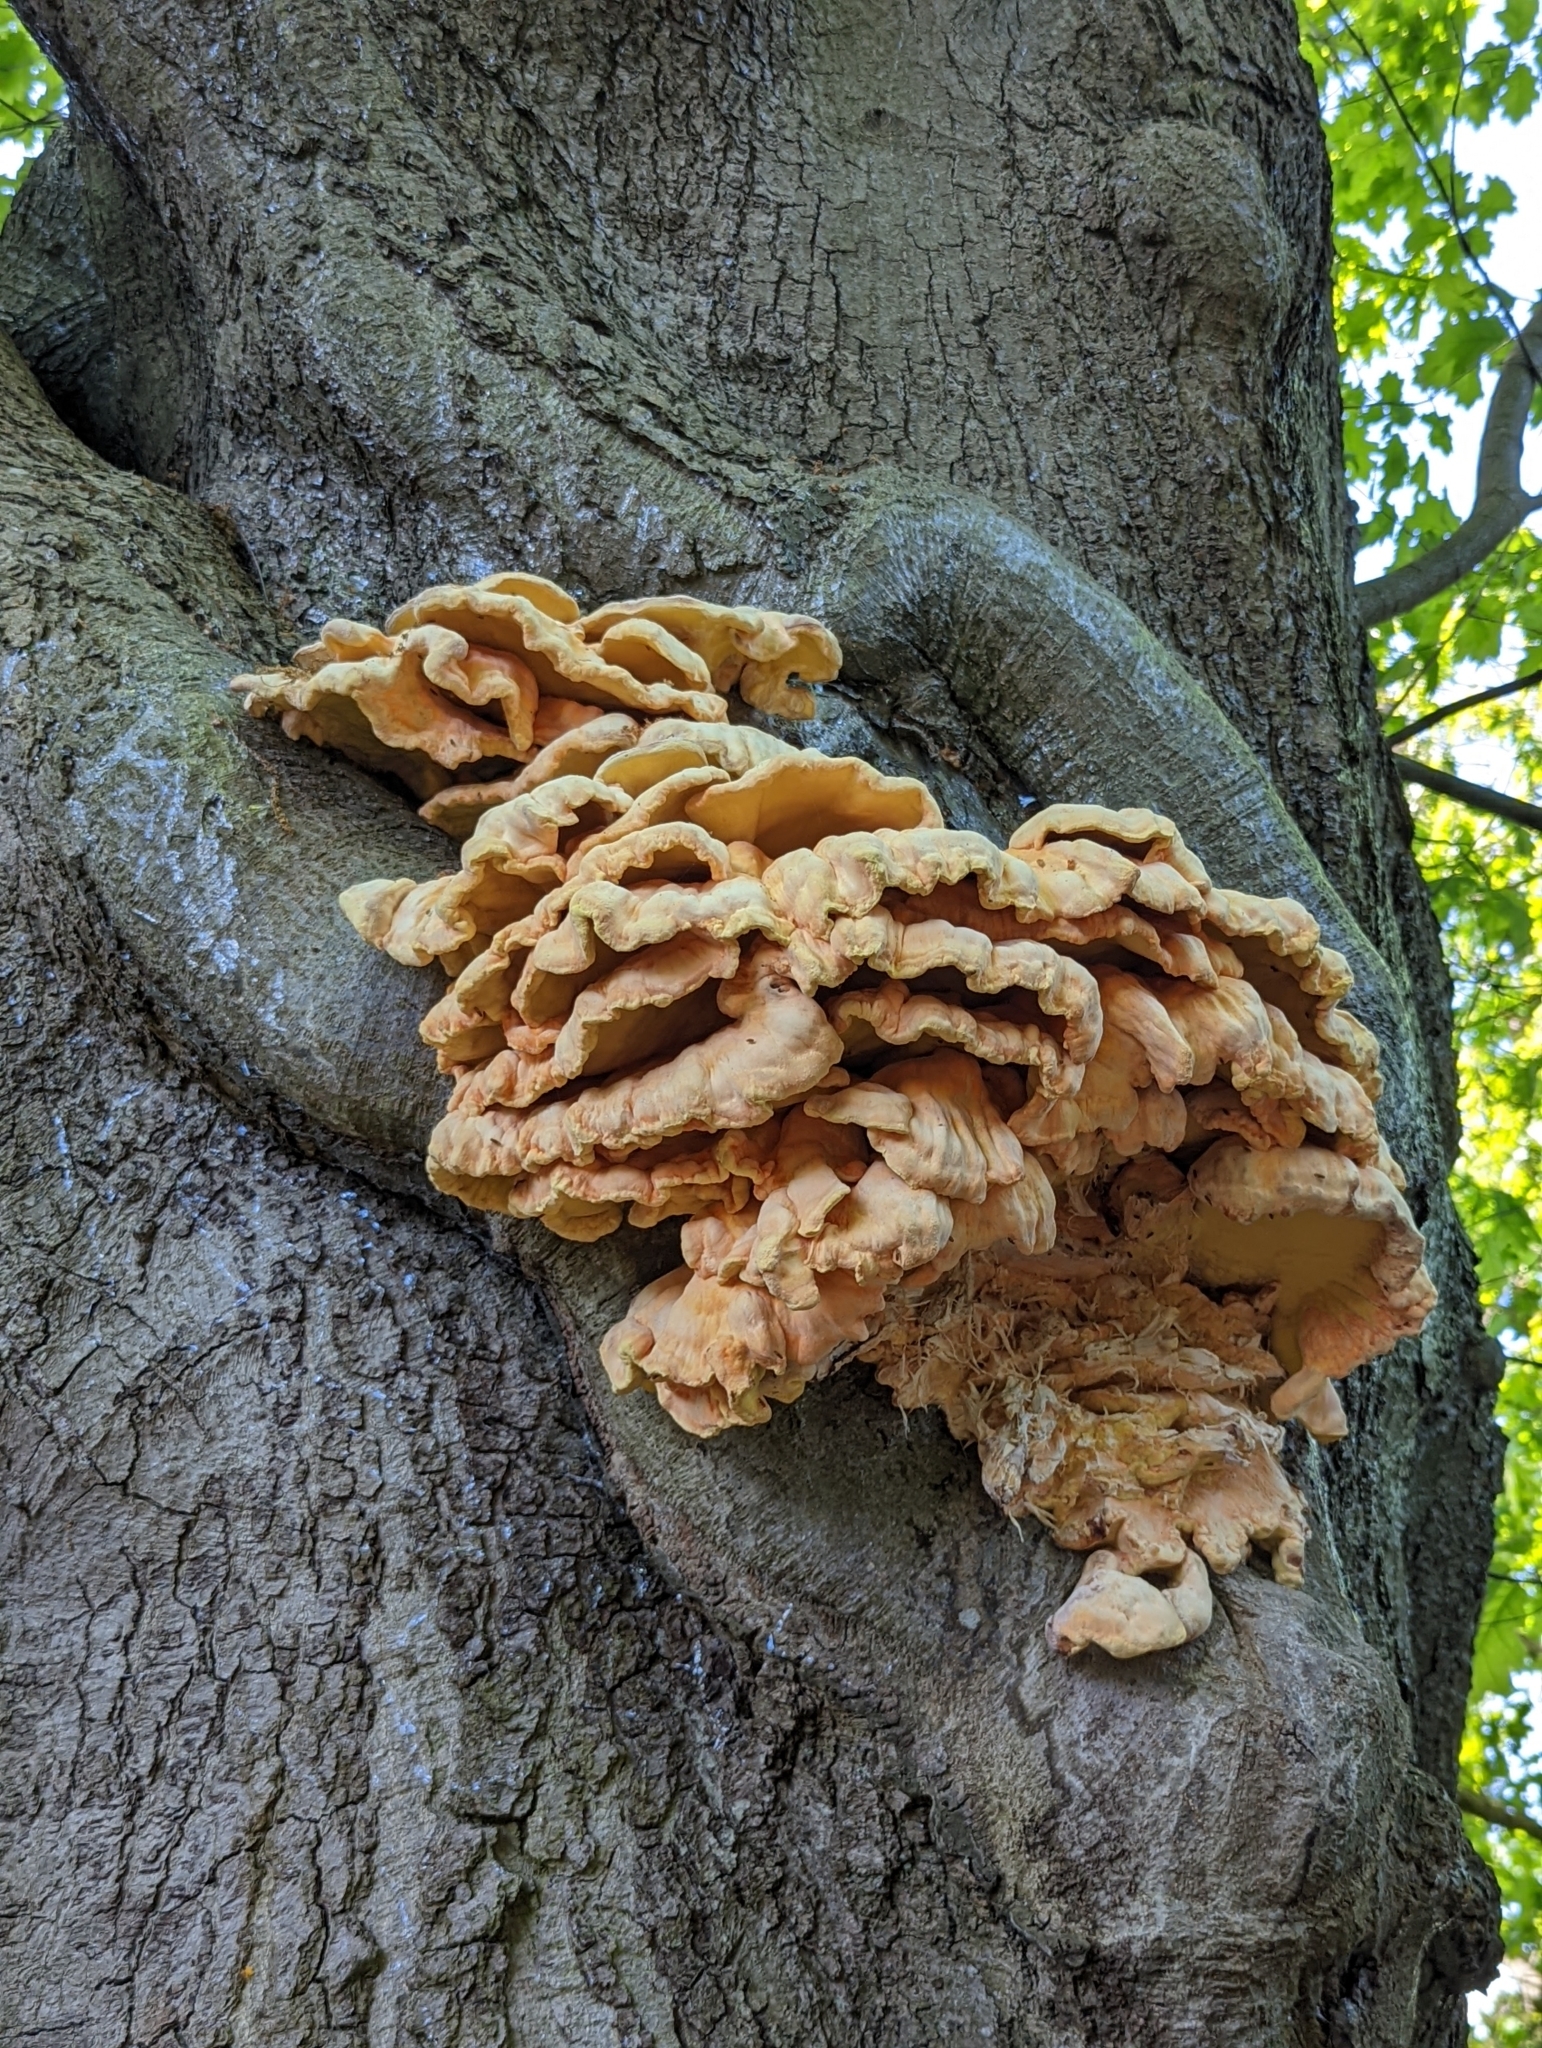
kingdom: Fungi
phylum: Basidiomycota
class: Agaricomycetes
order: Polyporales
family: Laetiporaceae
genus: Laetiporus
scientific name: Laetiporus sulphureus
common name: Chicken of the woods
